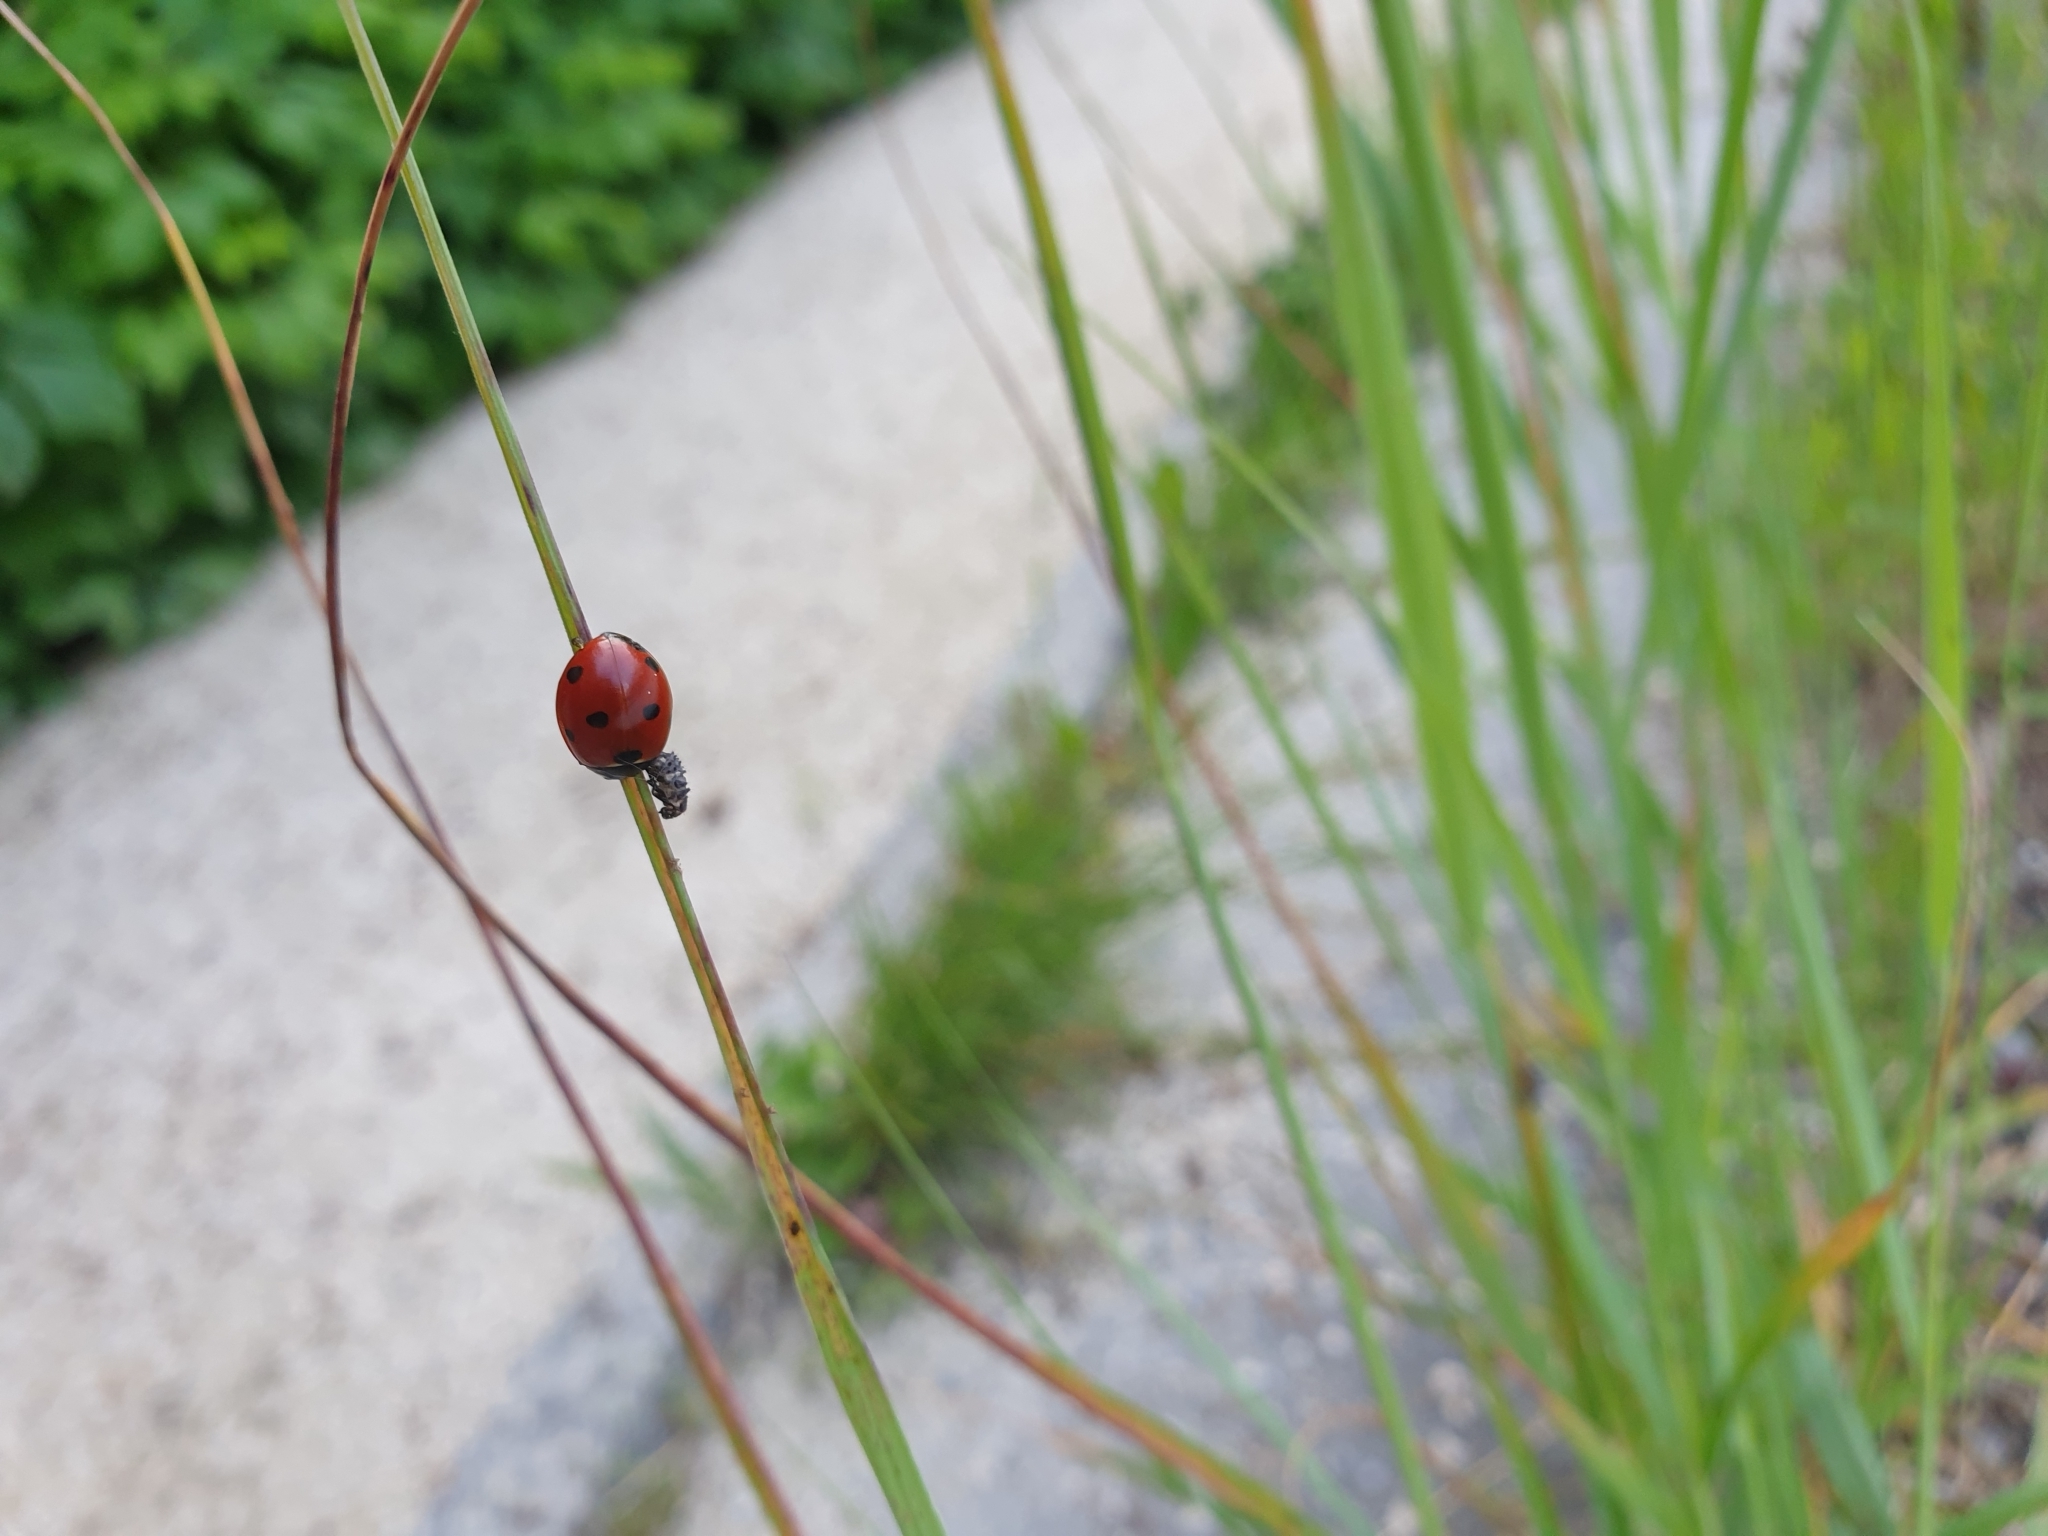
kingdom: Animalia
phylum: Arthropoda
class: Insecta
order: Coleoptera
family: Coccinellidae
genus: Coccinella
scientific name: Coccinella septempunctata
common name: Sevenspotted lady beetle
